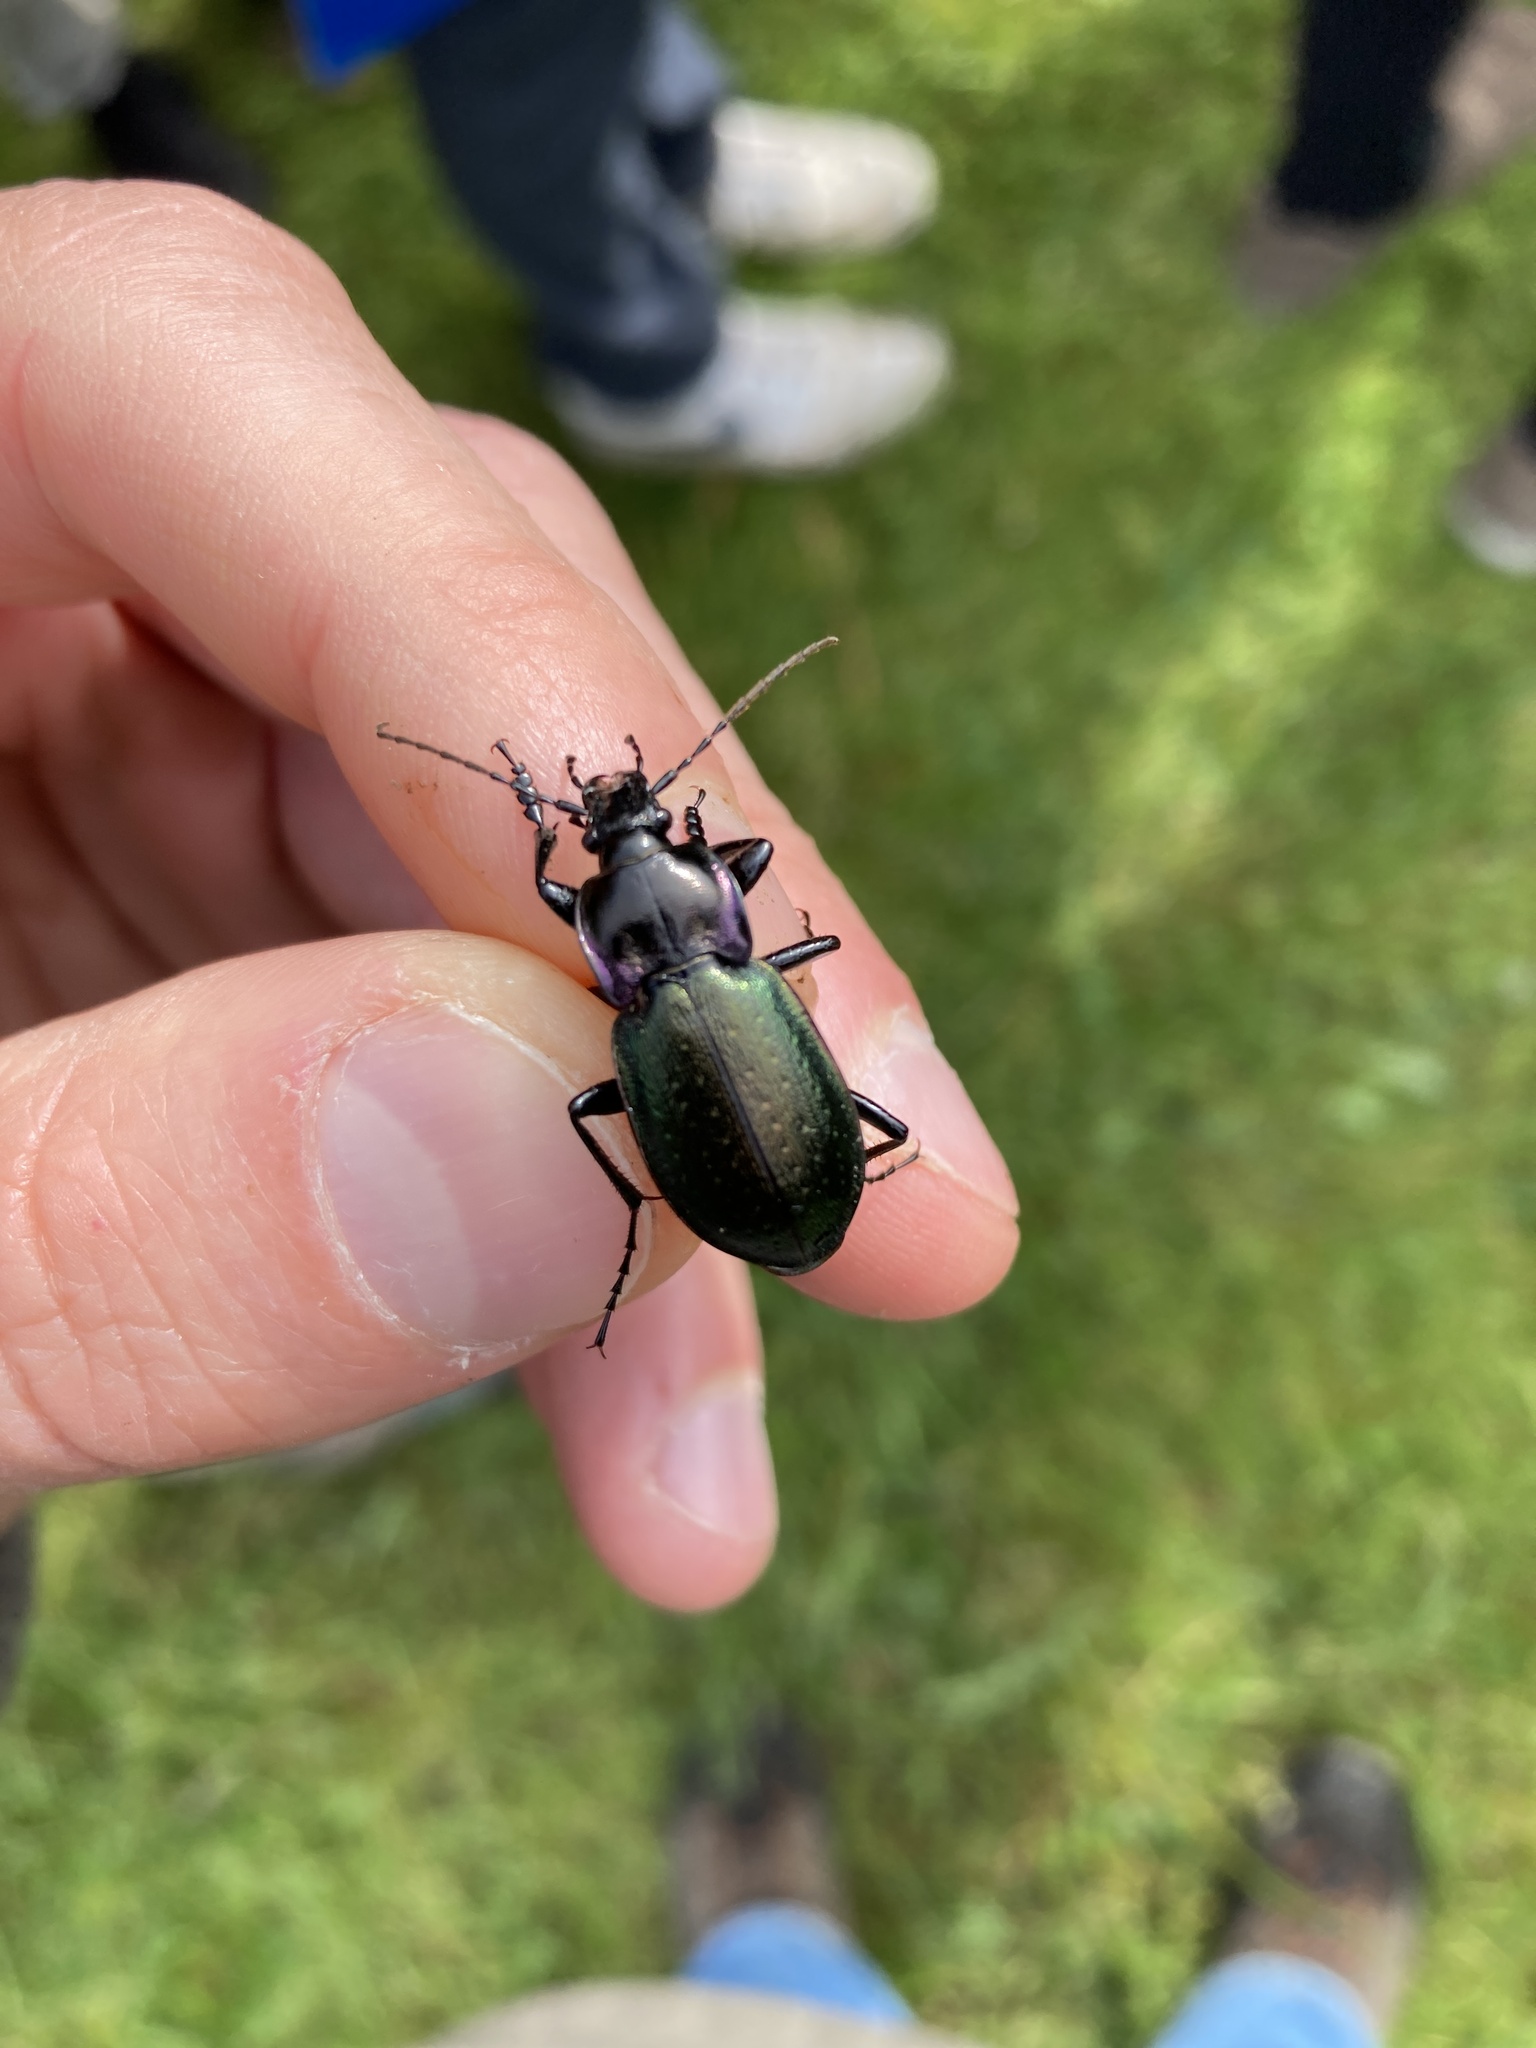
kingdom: Animalia
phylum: Arthropoda
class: Insecta
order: Coleoptera
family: Carabidae
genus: Carabus
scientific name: Carabus nemoralis
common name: European ground beetle
